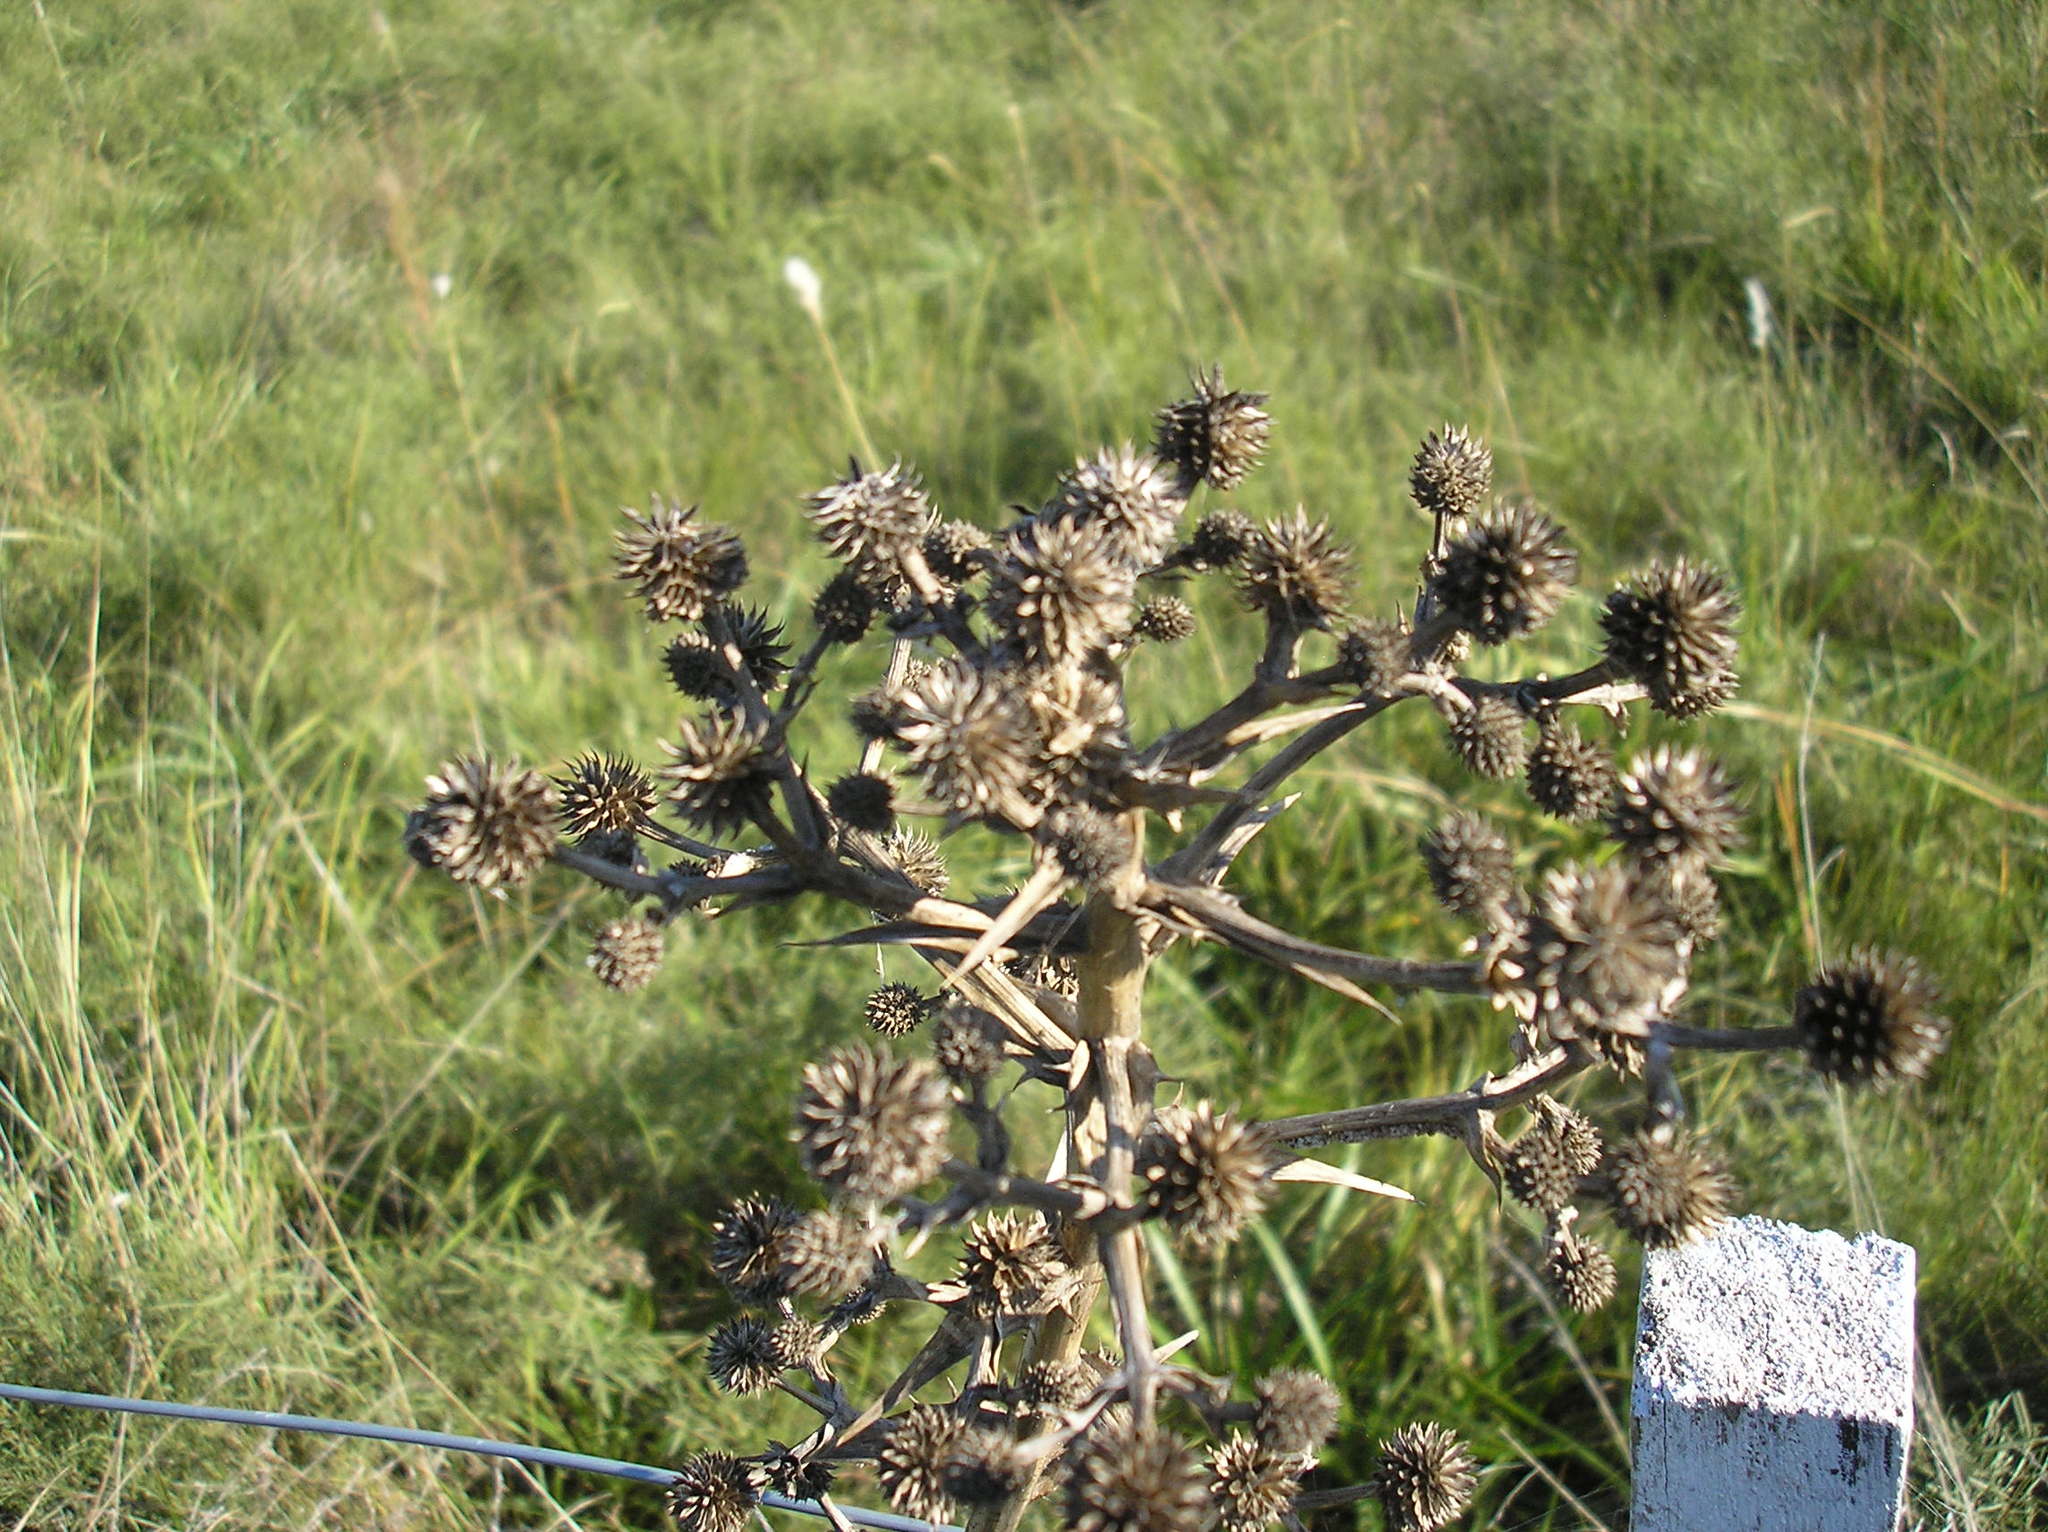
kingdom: Plantae
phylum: Tracheophyta
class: Magnoliopsida
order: Apiales
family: Apiaceae
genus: Eryngium
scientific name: Eryngium humboldtii
